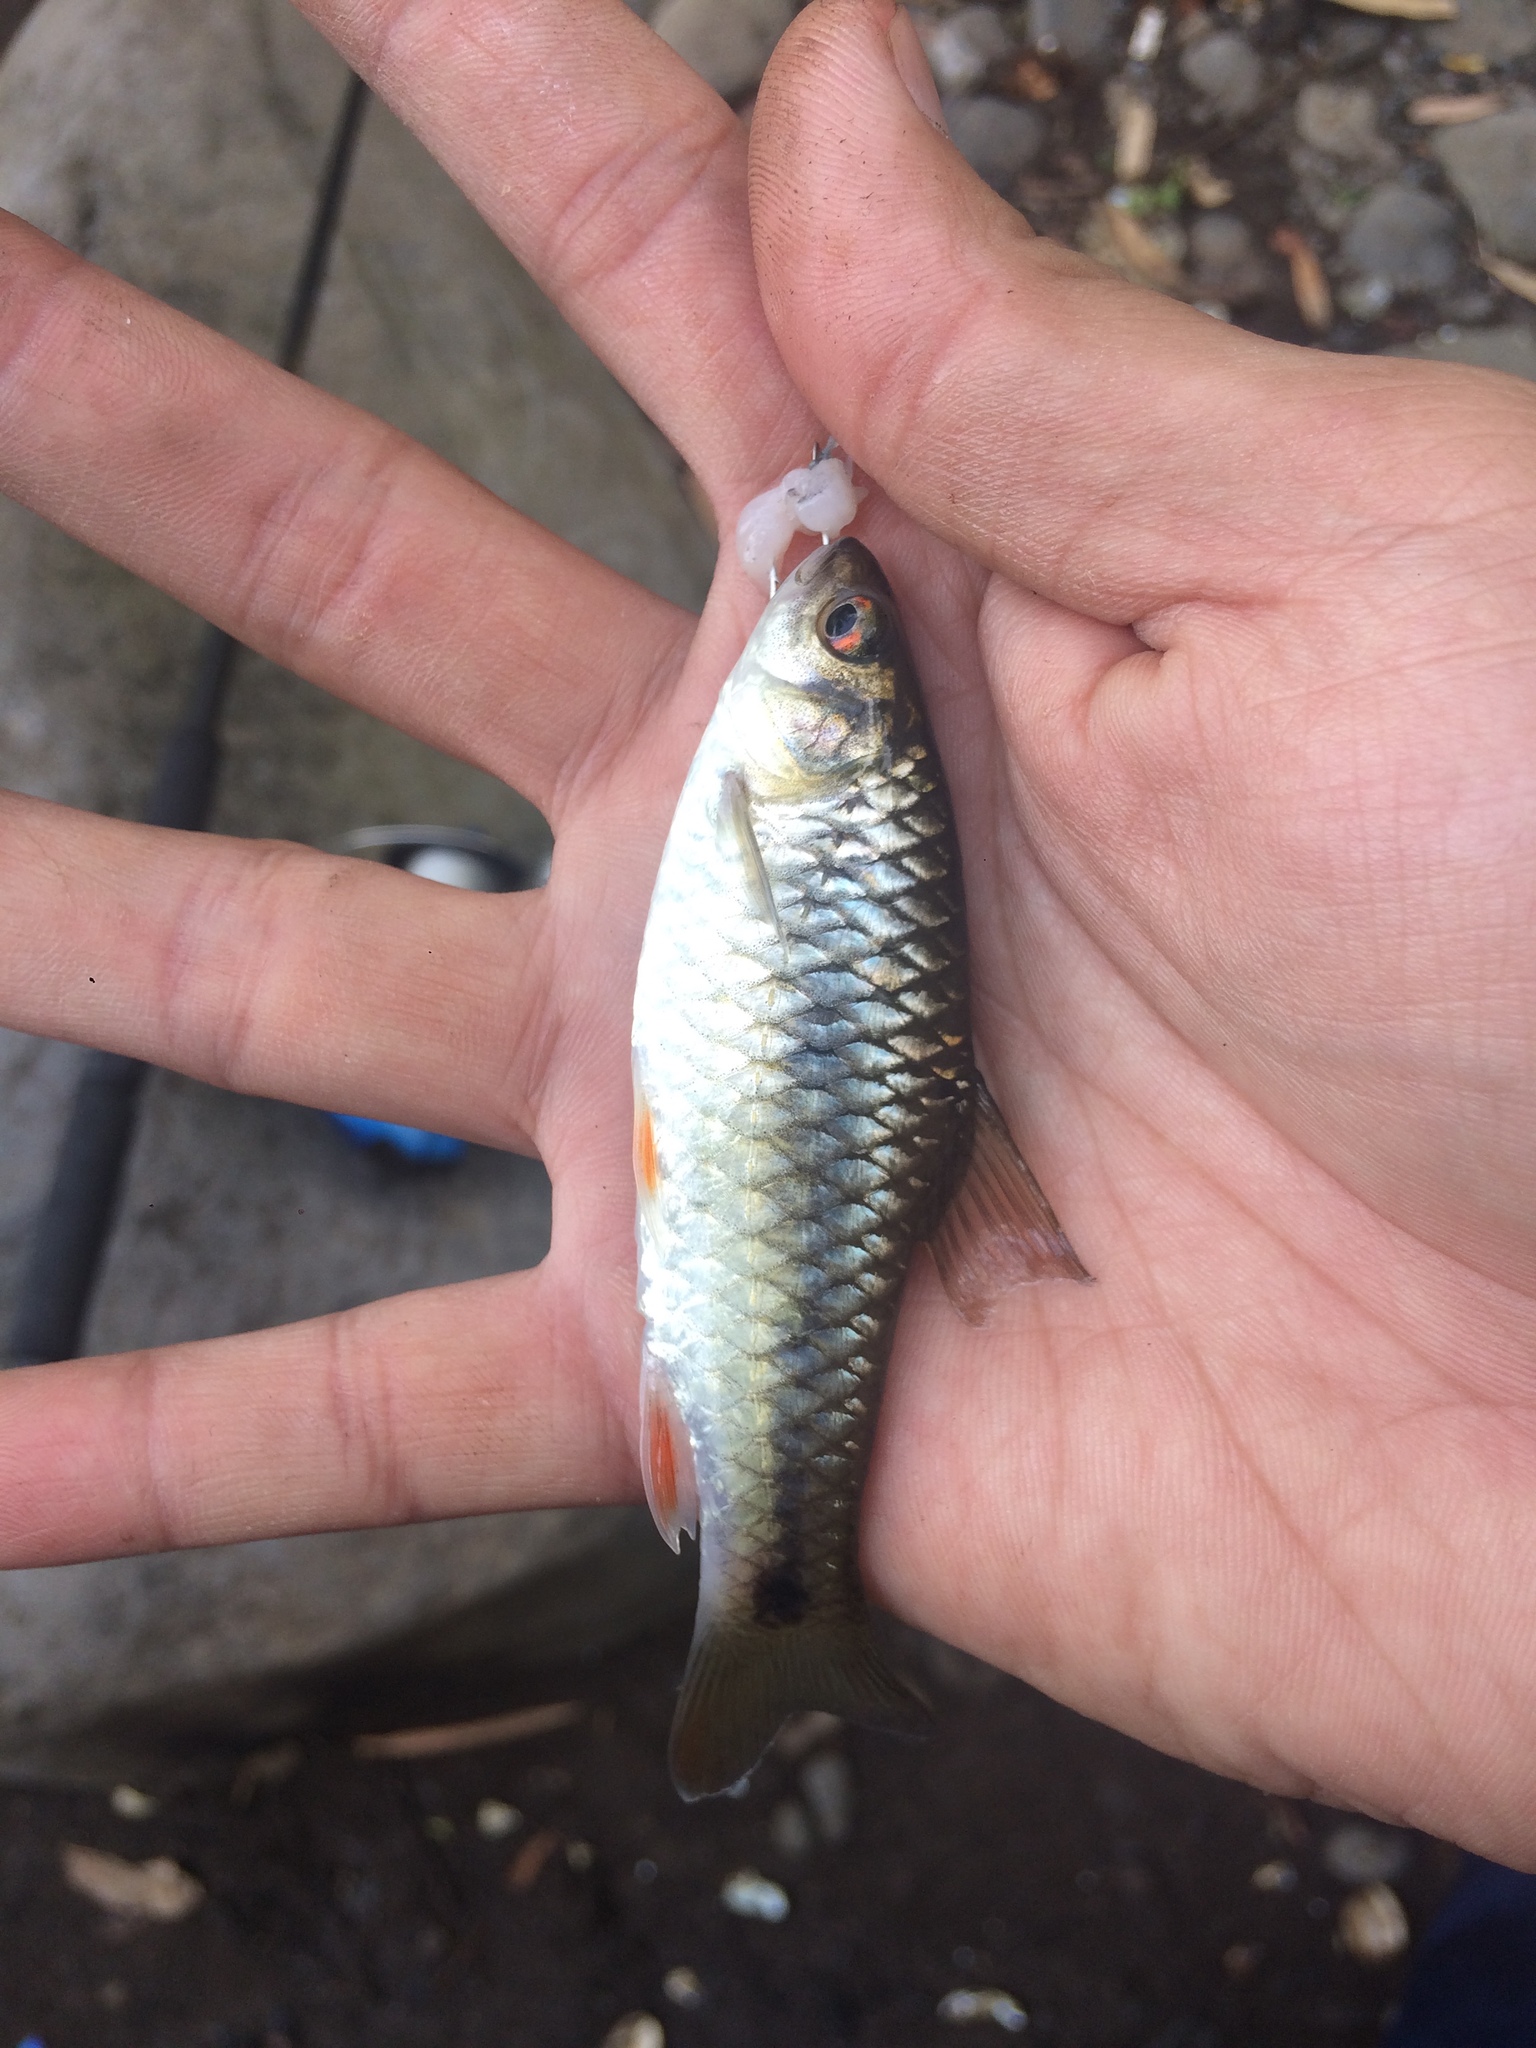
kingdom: Animalia
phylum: Chordata
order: Cypriniformes
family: Cyprinidae
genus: Barbodes
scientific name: Barbodes binotatus
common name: Spotted barb
